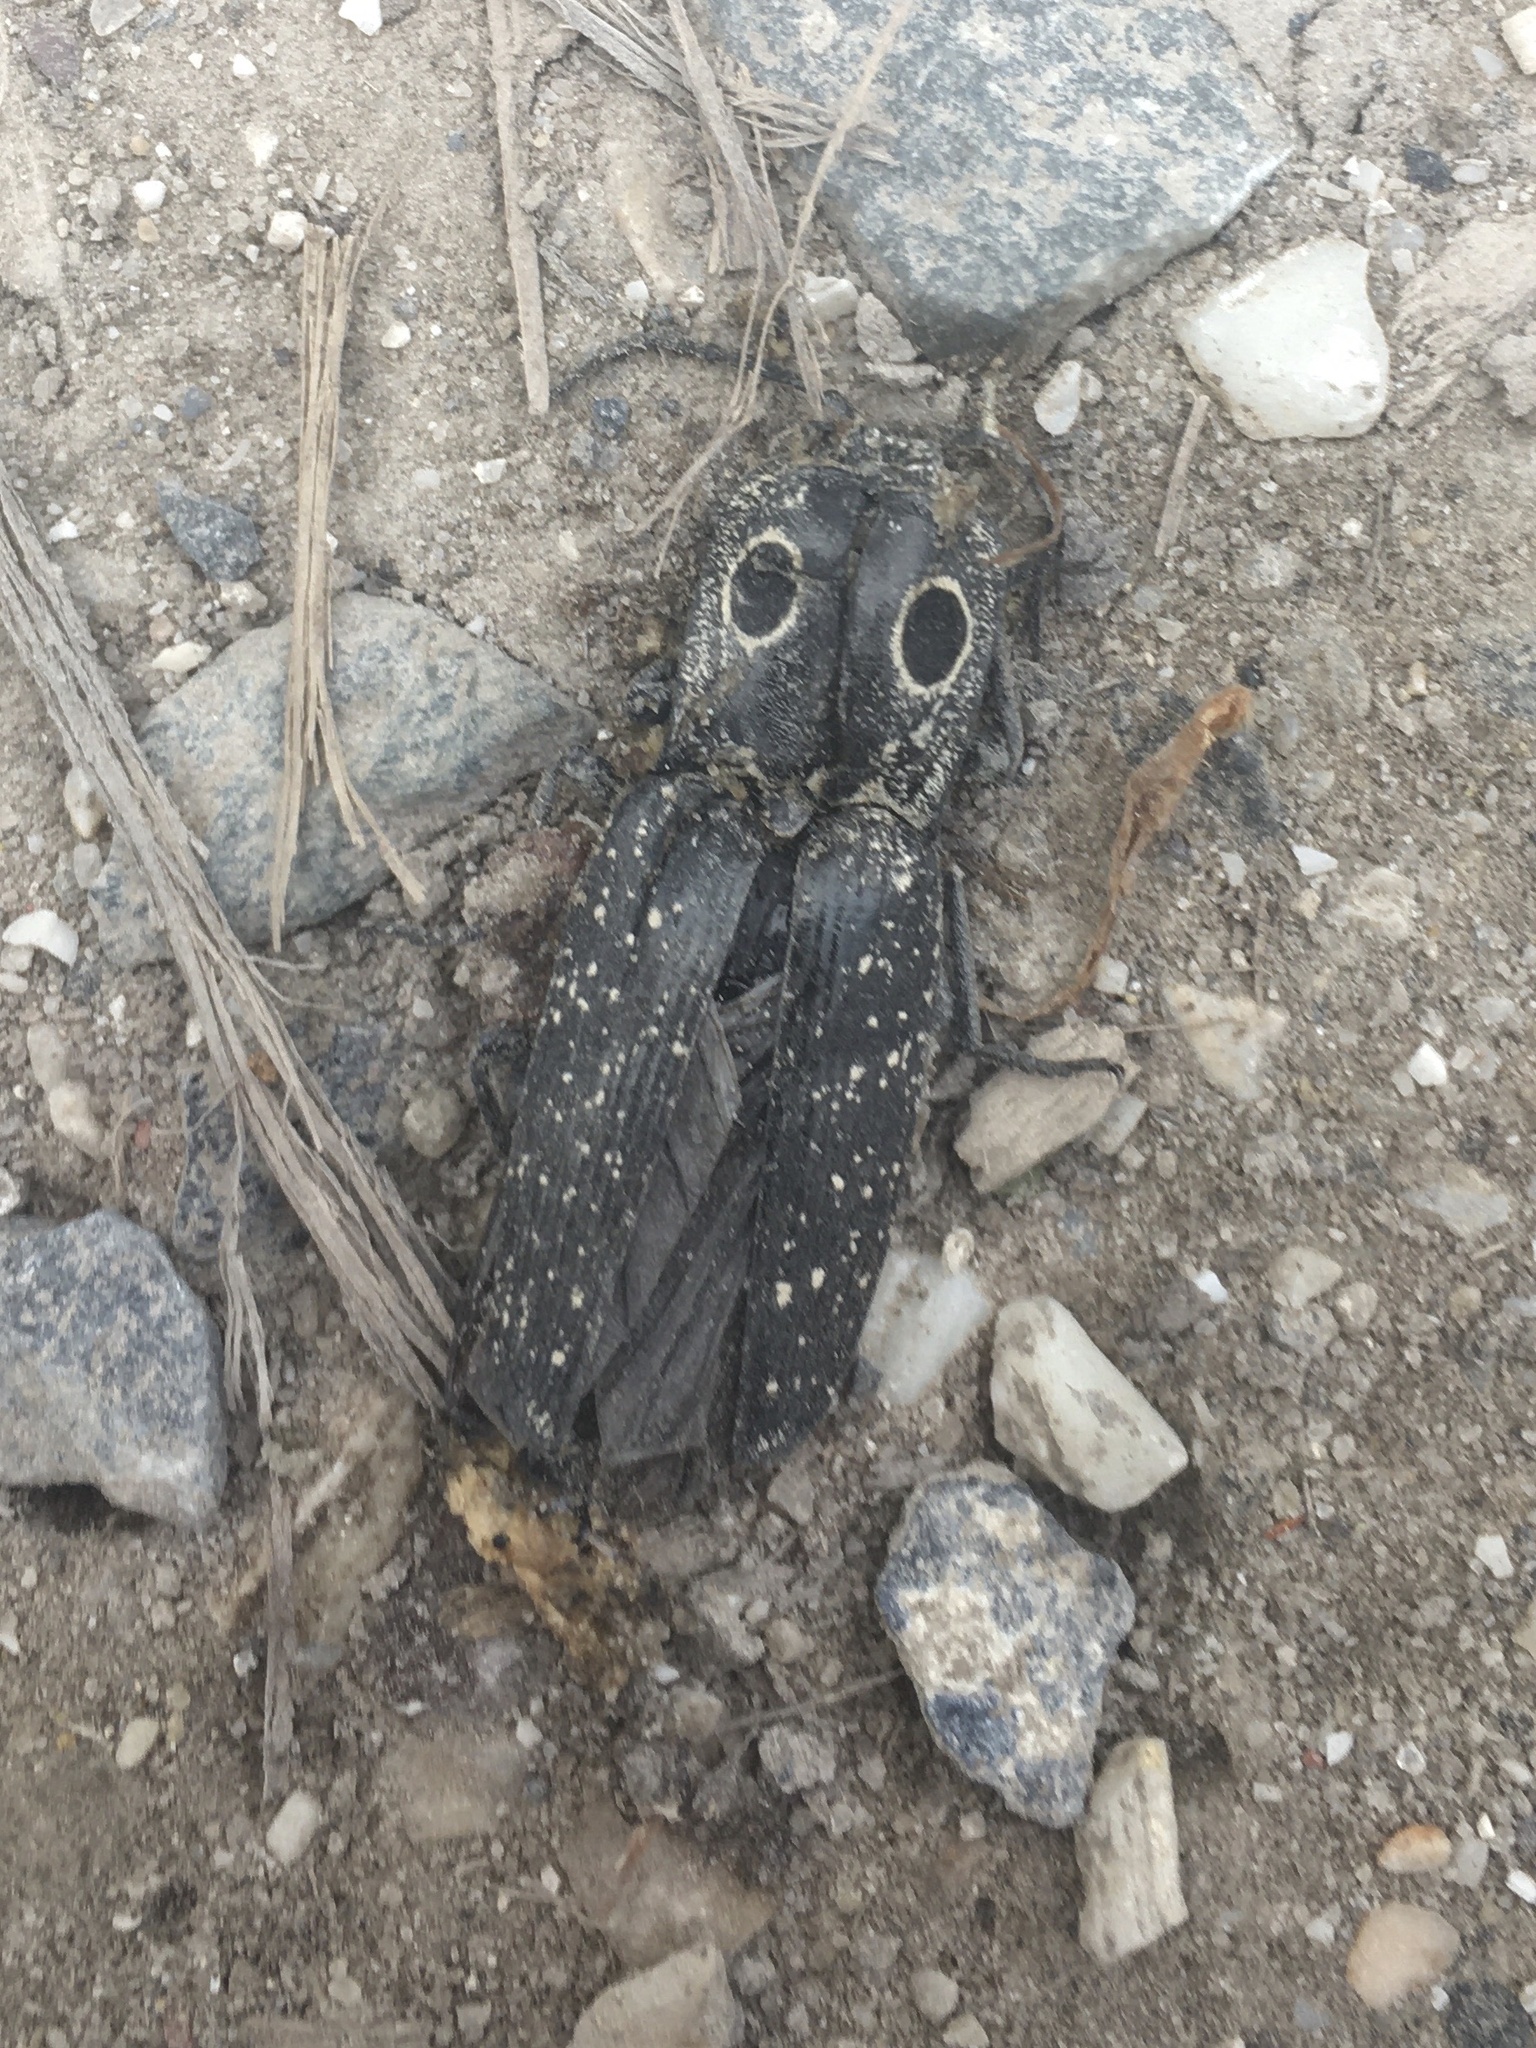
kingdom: Animalia
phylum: Arthropoda
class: Insecta
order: Coleoptera
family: Elateridae
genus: Alaus
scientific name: Alaus oculatus
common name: Eastern eyed click beetle
